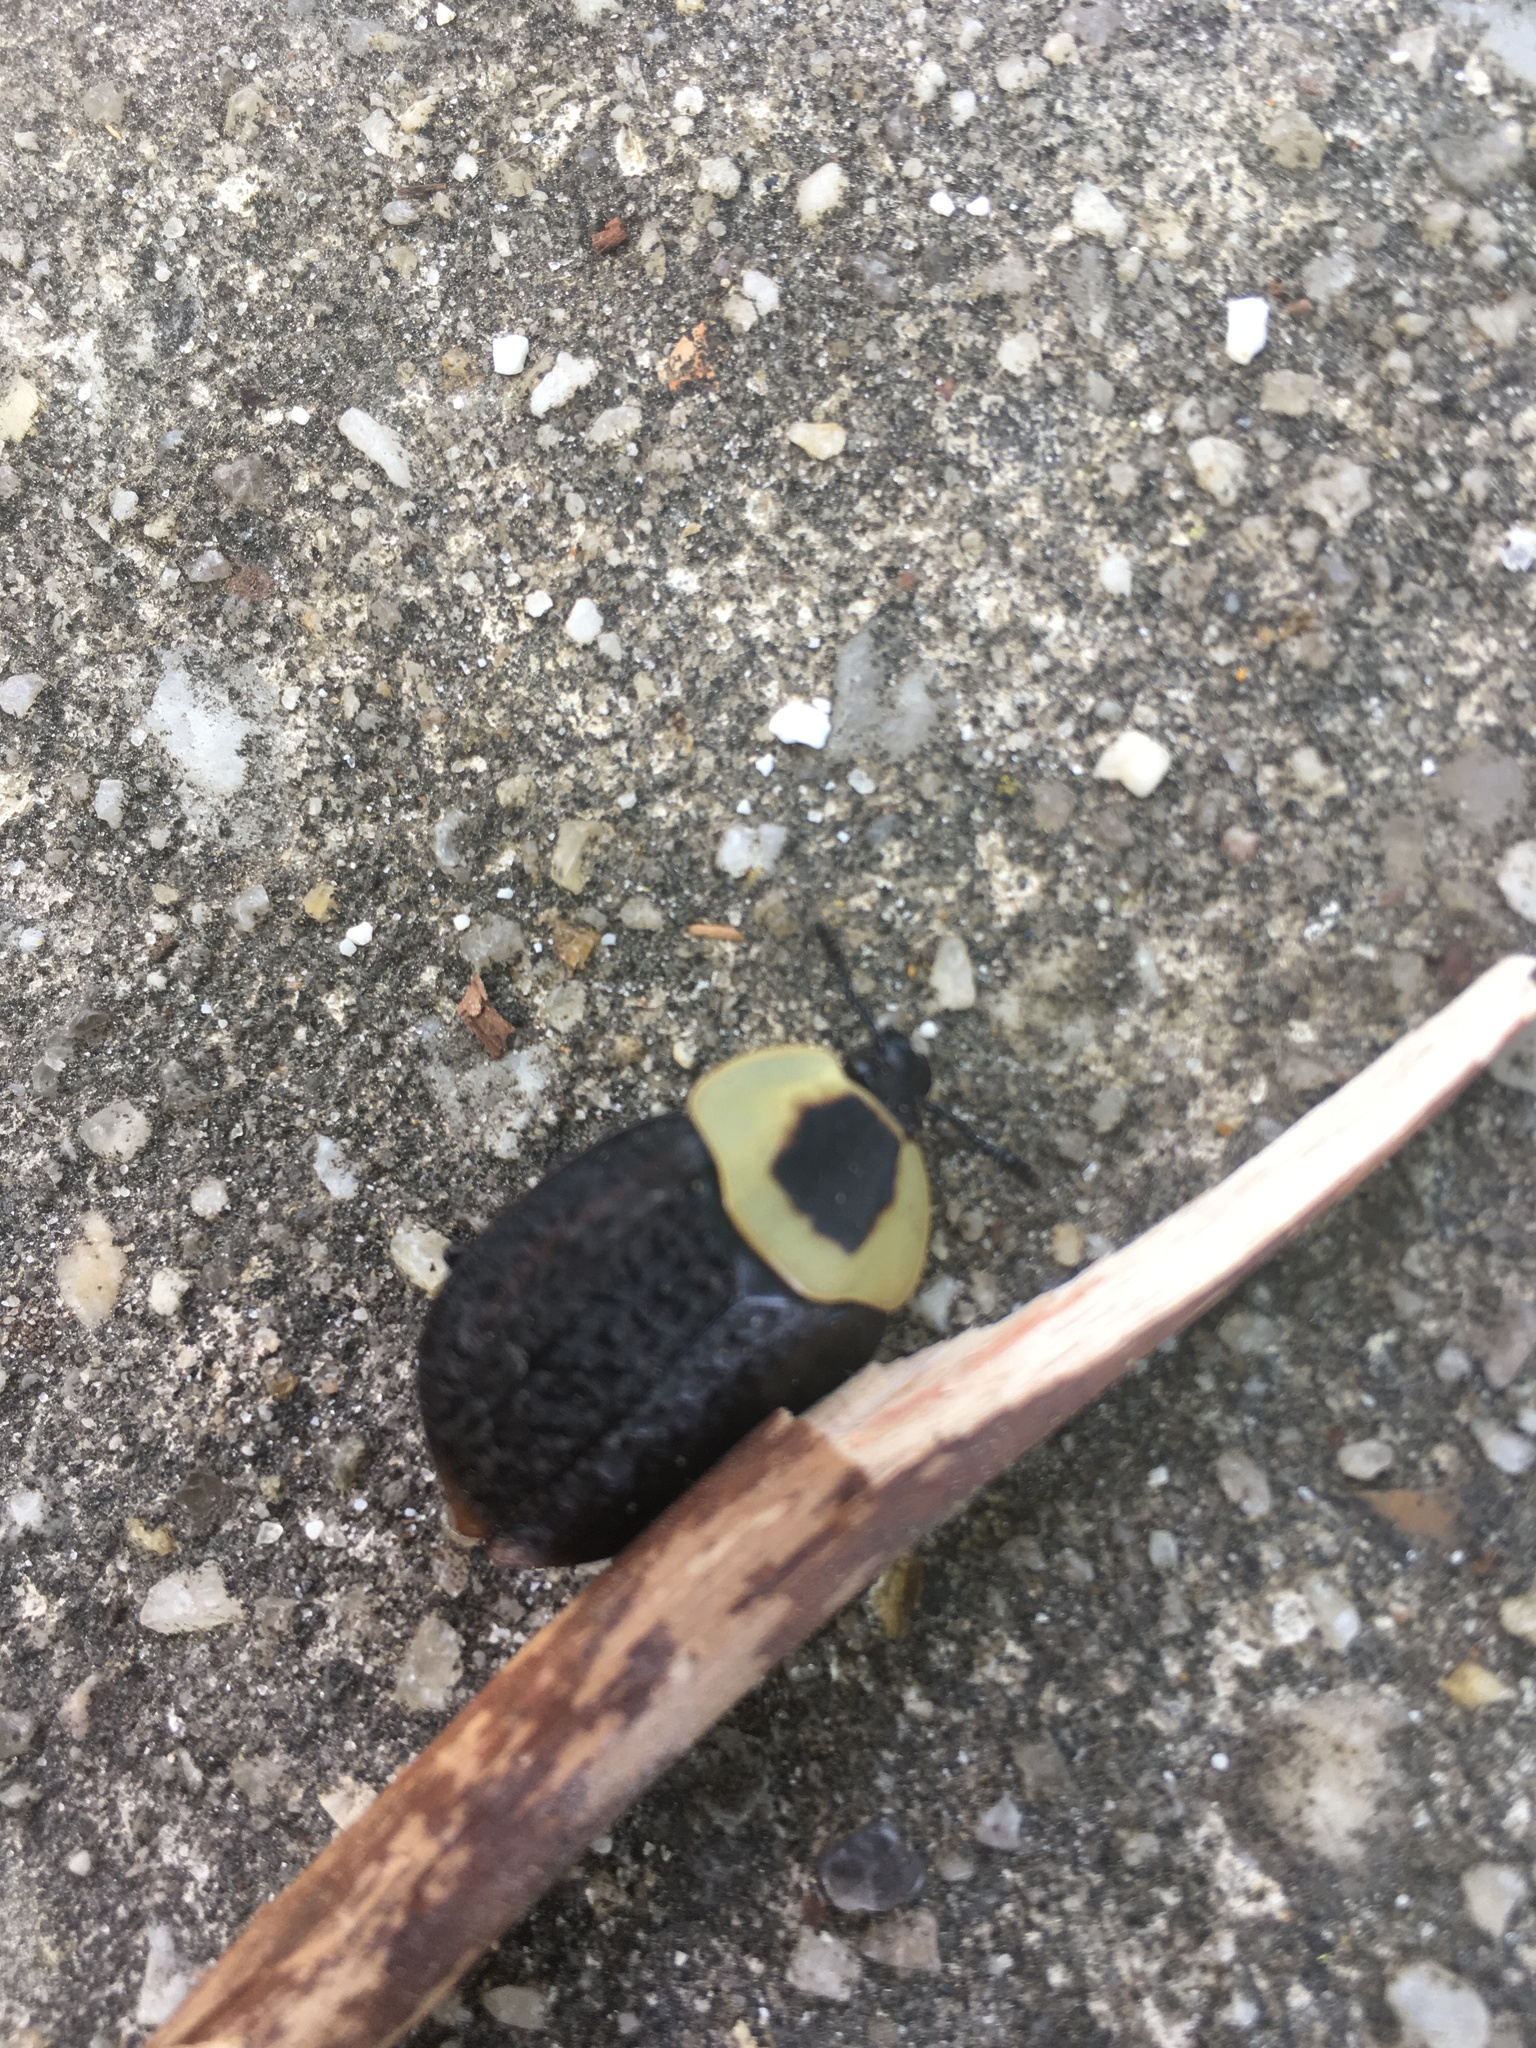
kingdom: Animalia
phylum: Arthropoda
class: Insecta
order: Coleoptera
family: Staphylinidae
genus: Necrophila
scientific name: Necrophila americana
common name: American carrion beetle
